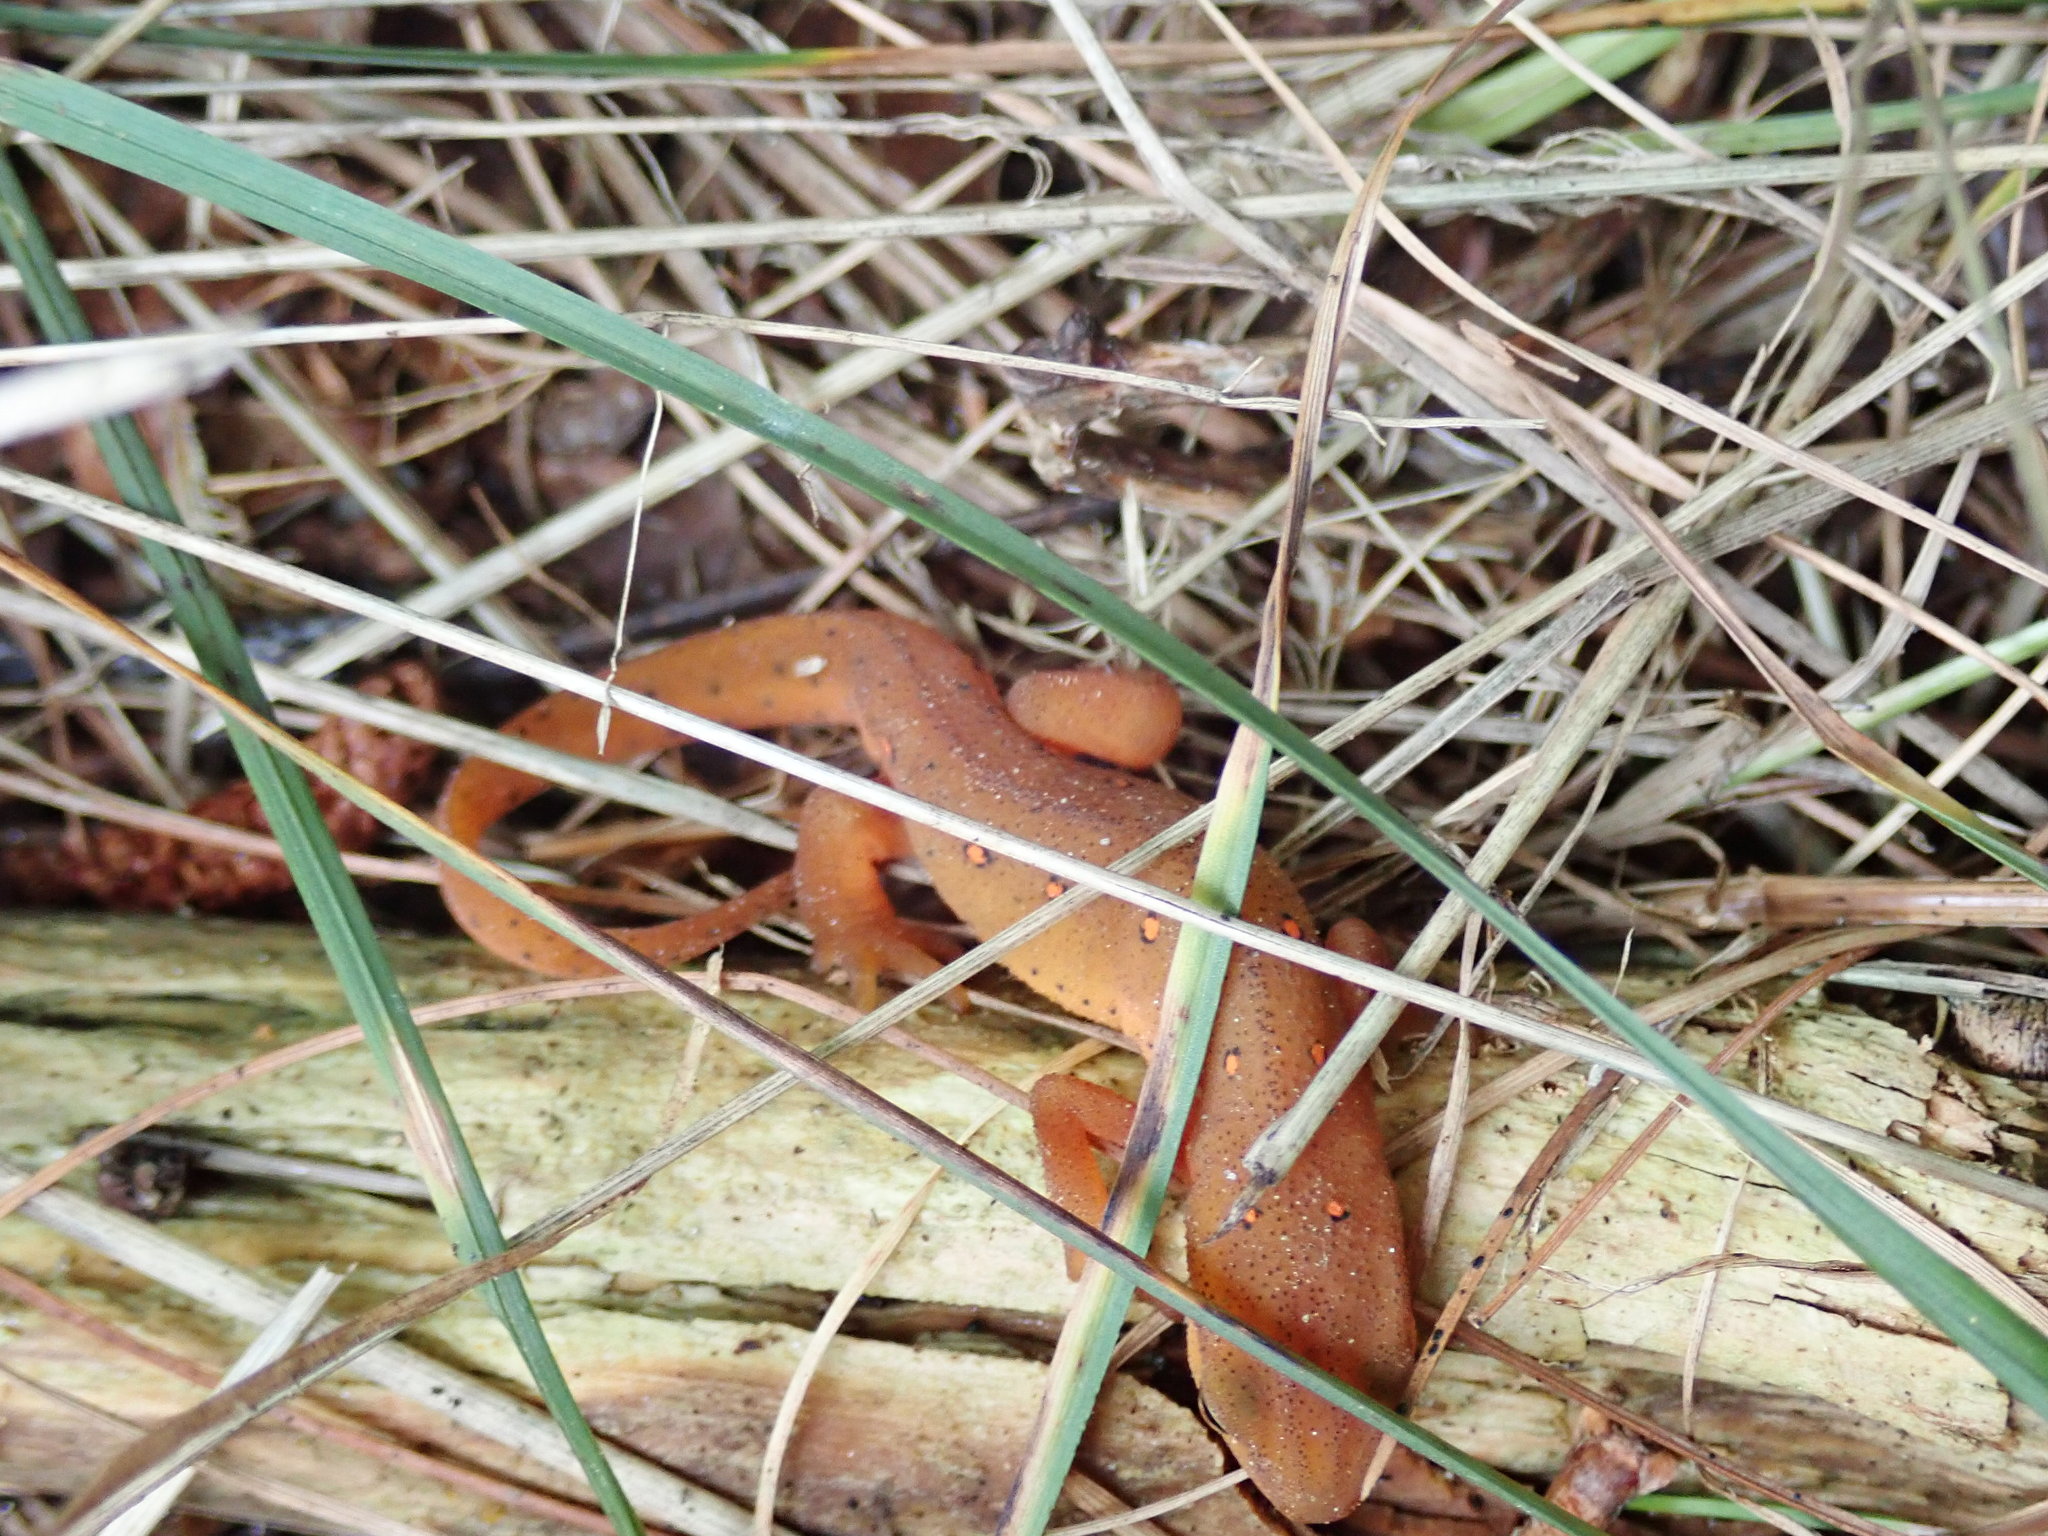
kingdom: Animalia
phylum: Chordata
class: Amphibia
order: Caudata
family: Salamandridae
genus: Notophthalmus
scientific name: Notophthalmus viridescens
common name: Eastern newt
